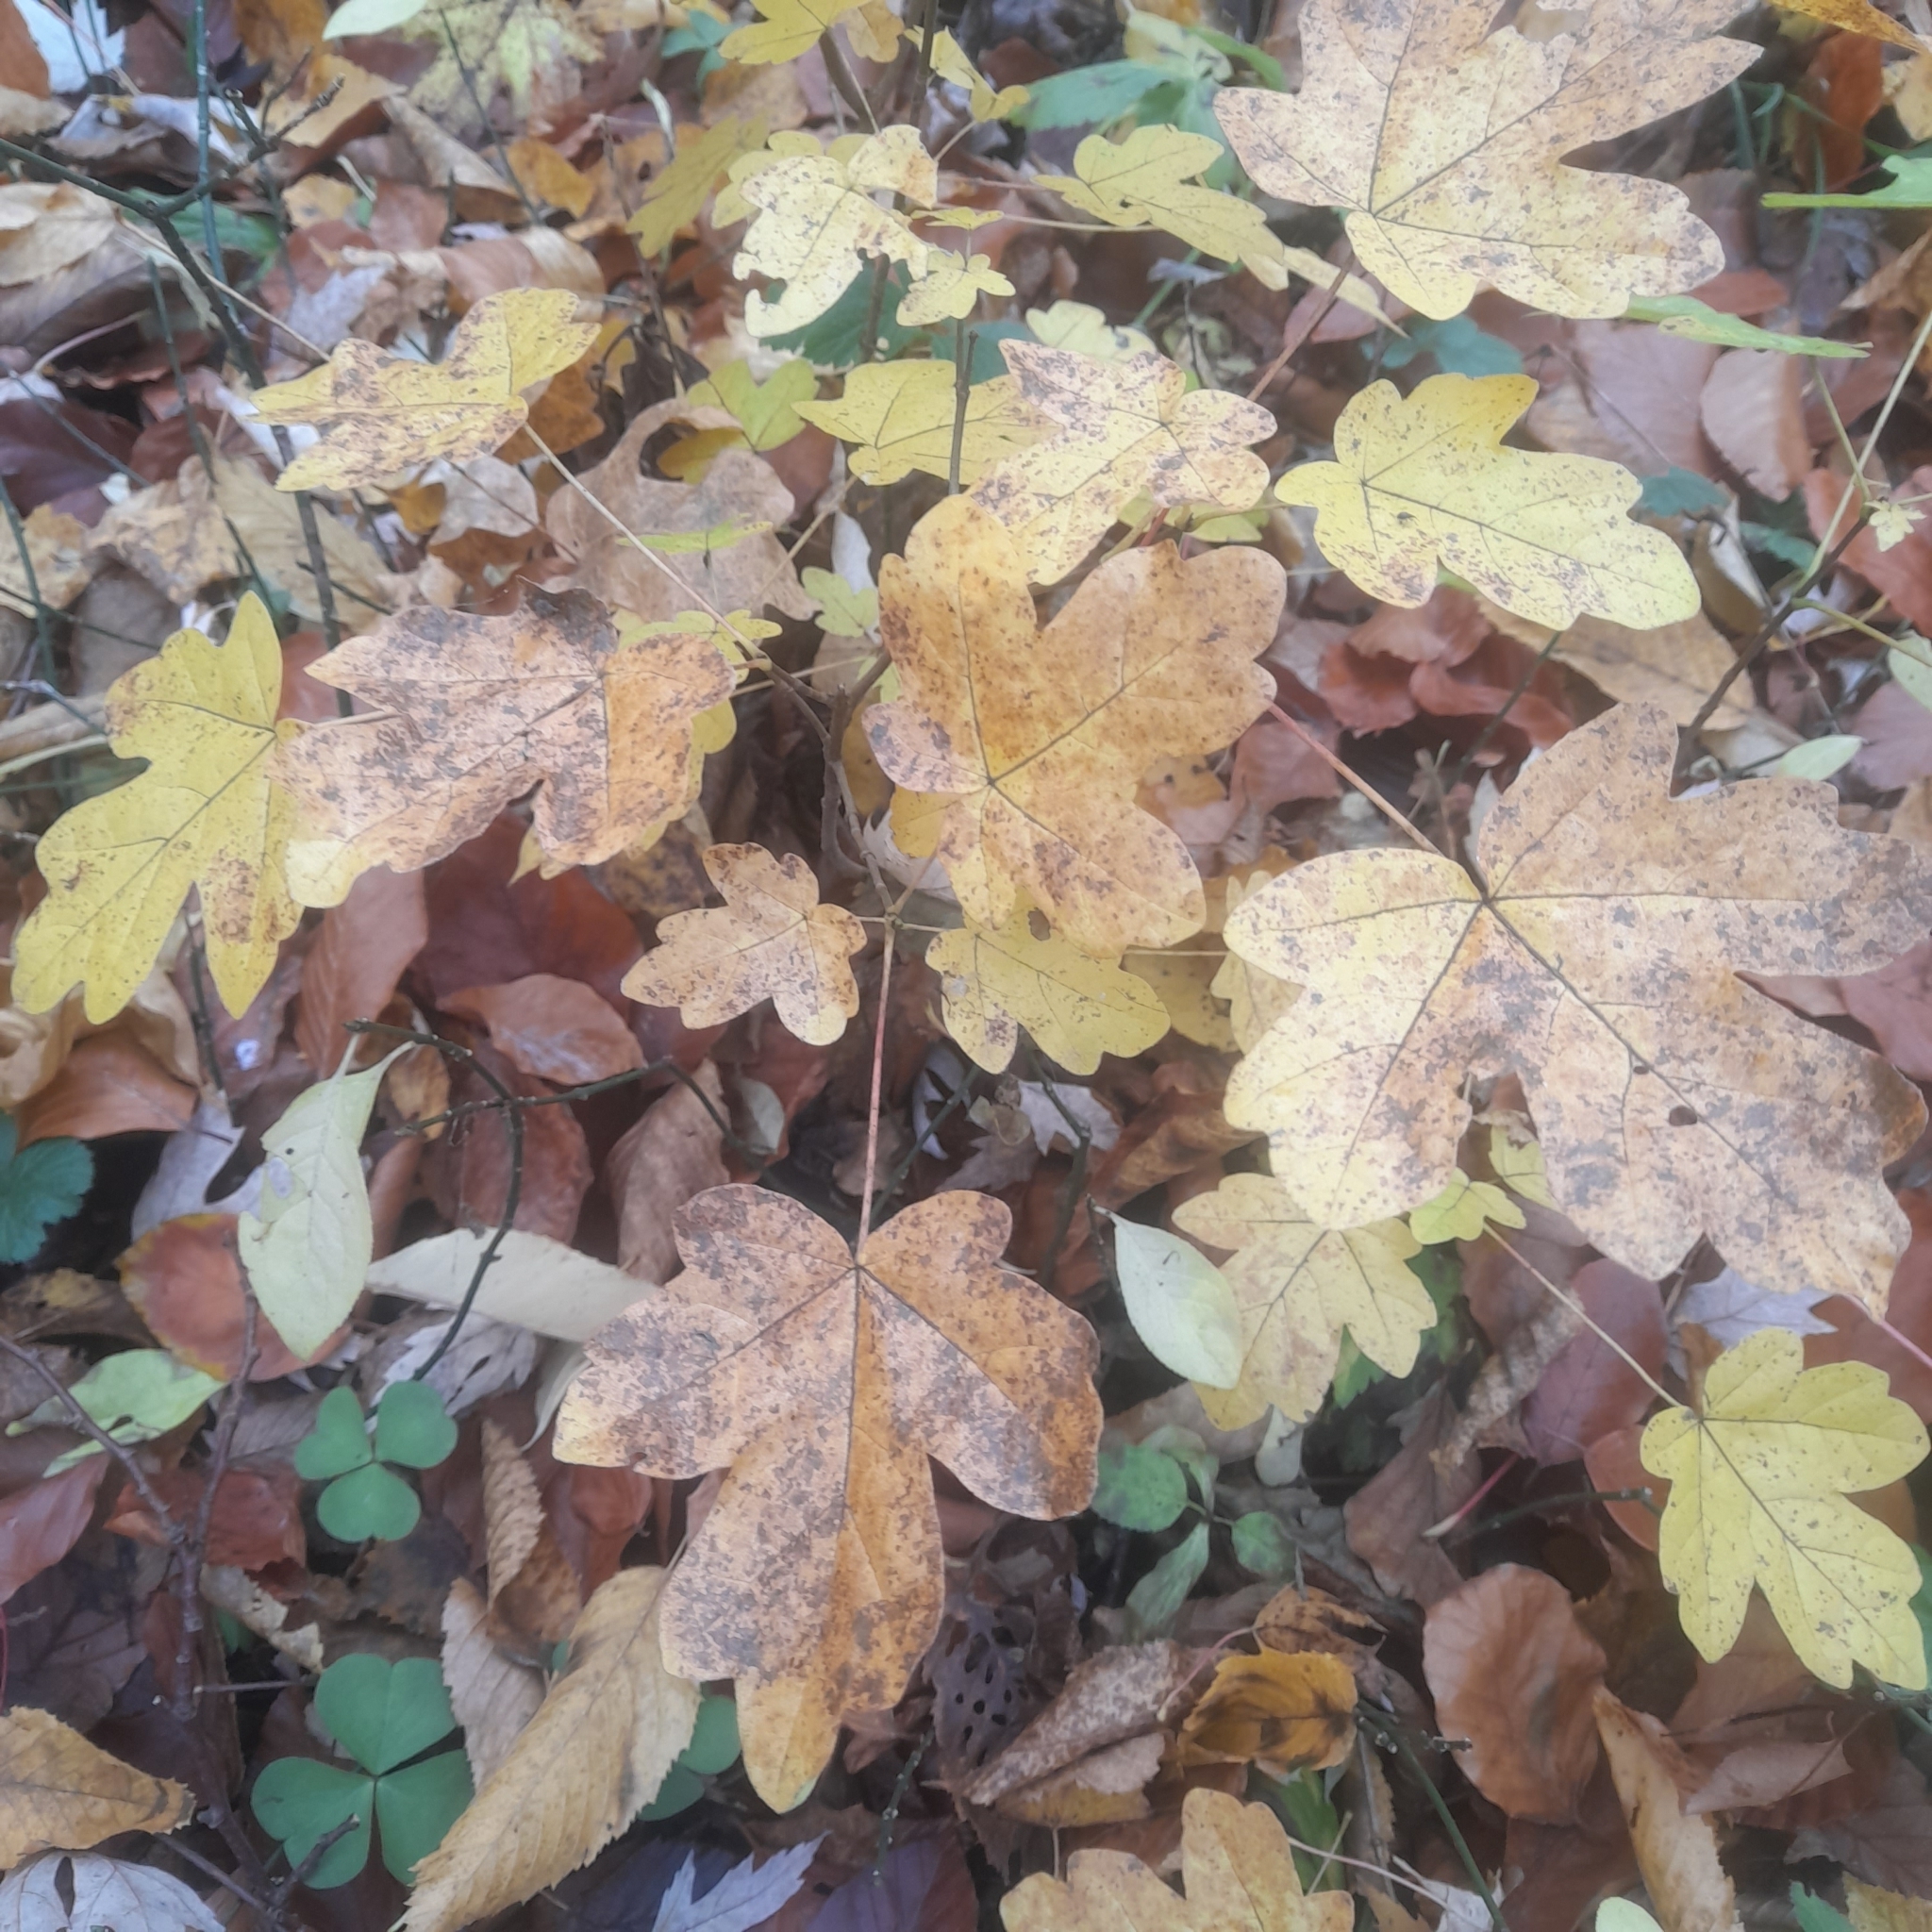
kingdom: Plantae
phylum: Tracheophyta
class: Magnoliopsida
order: Sapindales
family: Sapindaceae
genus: Acer
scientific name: Acer campestre
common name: Field maple
